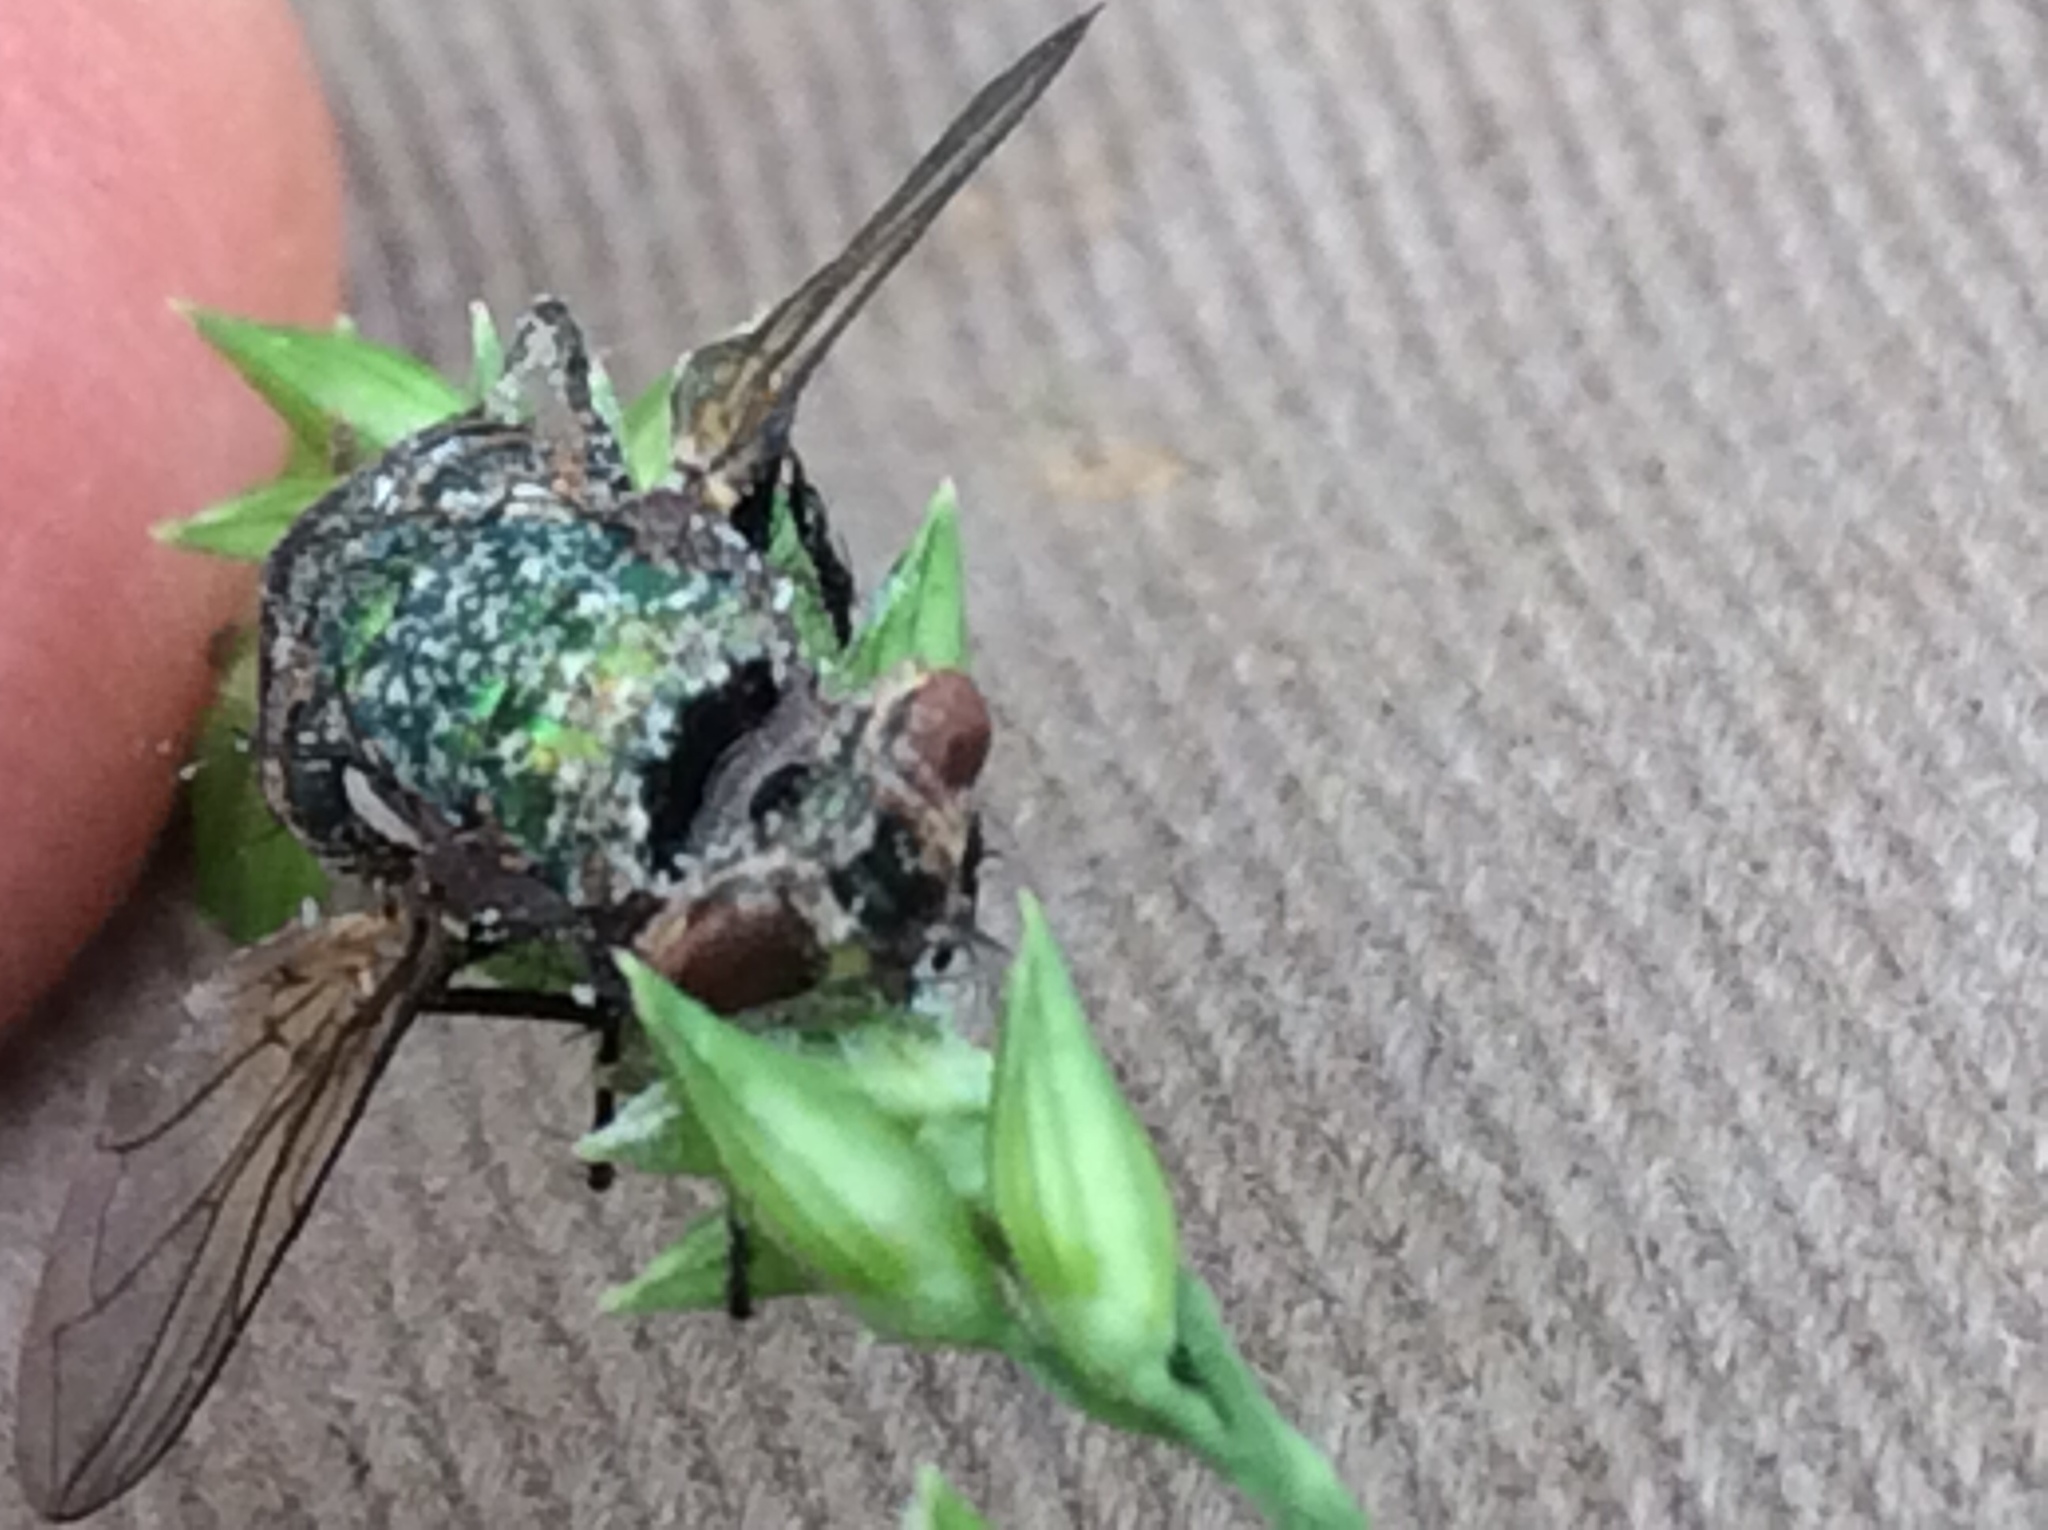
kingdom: Fungi
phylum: Entomophthoromycota
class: Entomophthoromycetes
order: Entomophthorales
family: Entomophthoraceae
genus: Entomophthora
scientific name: Entomophthora
